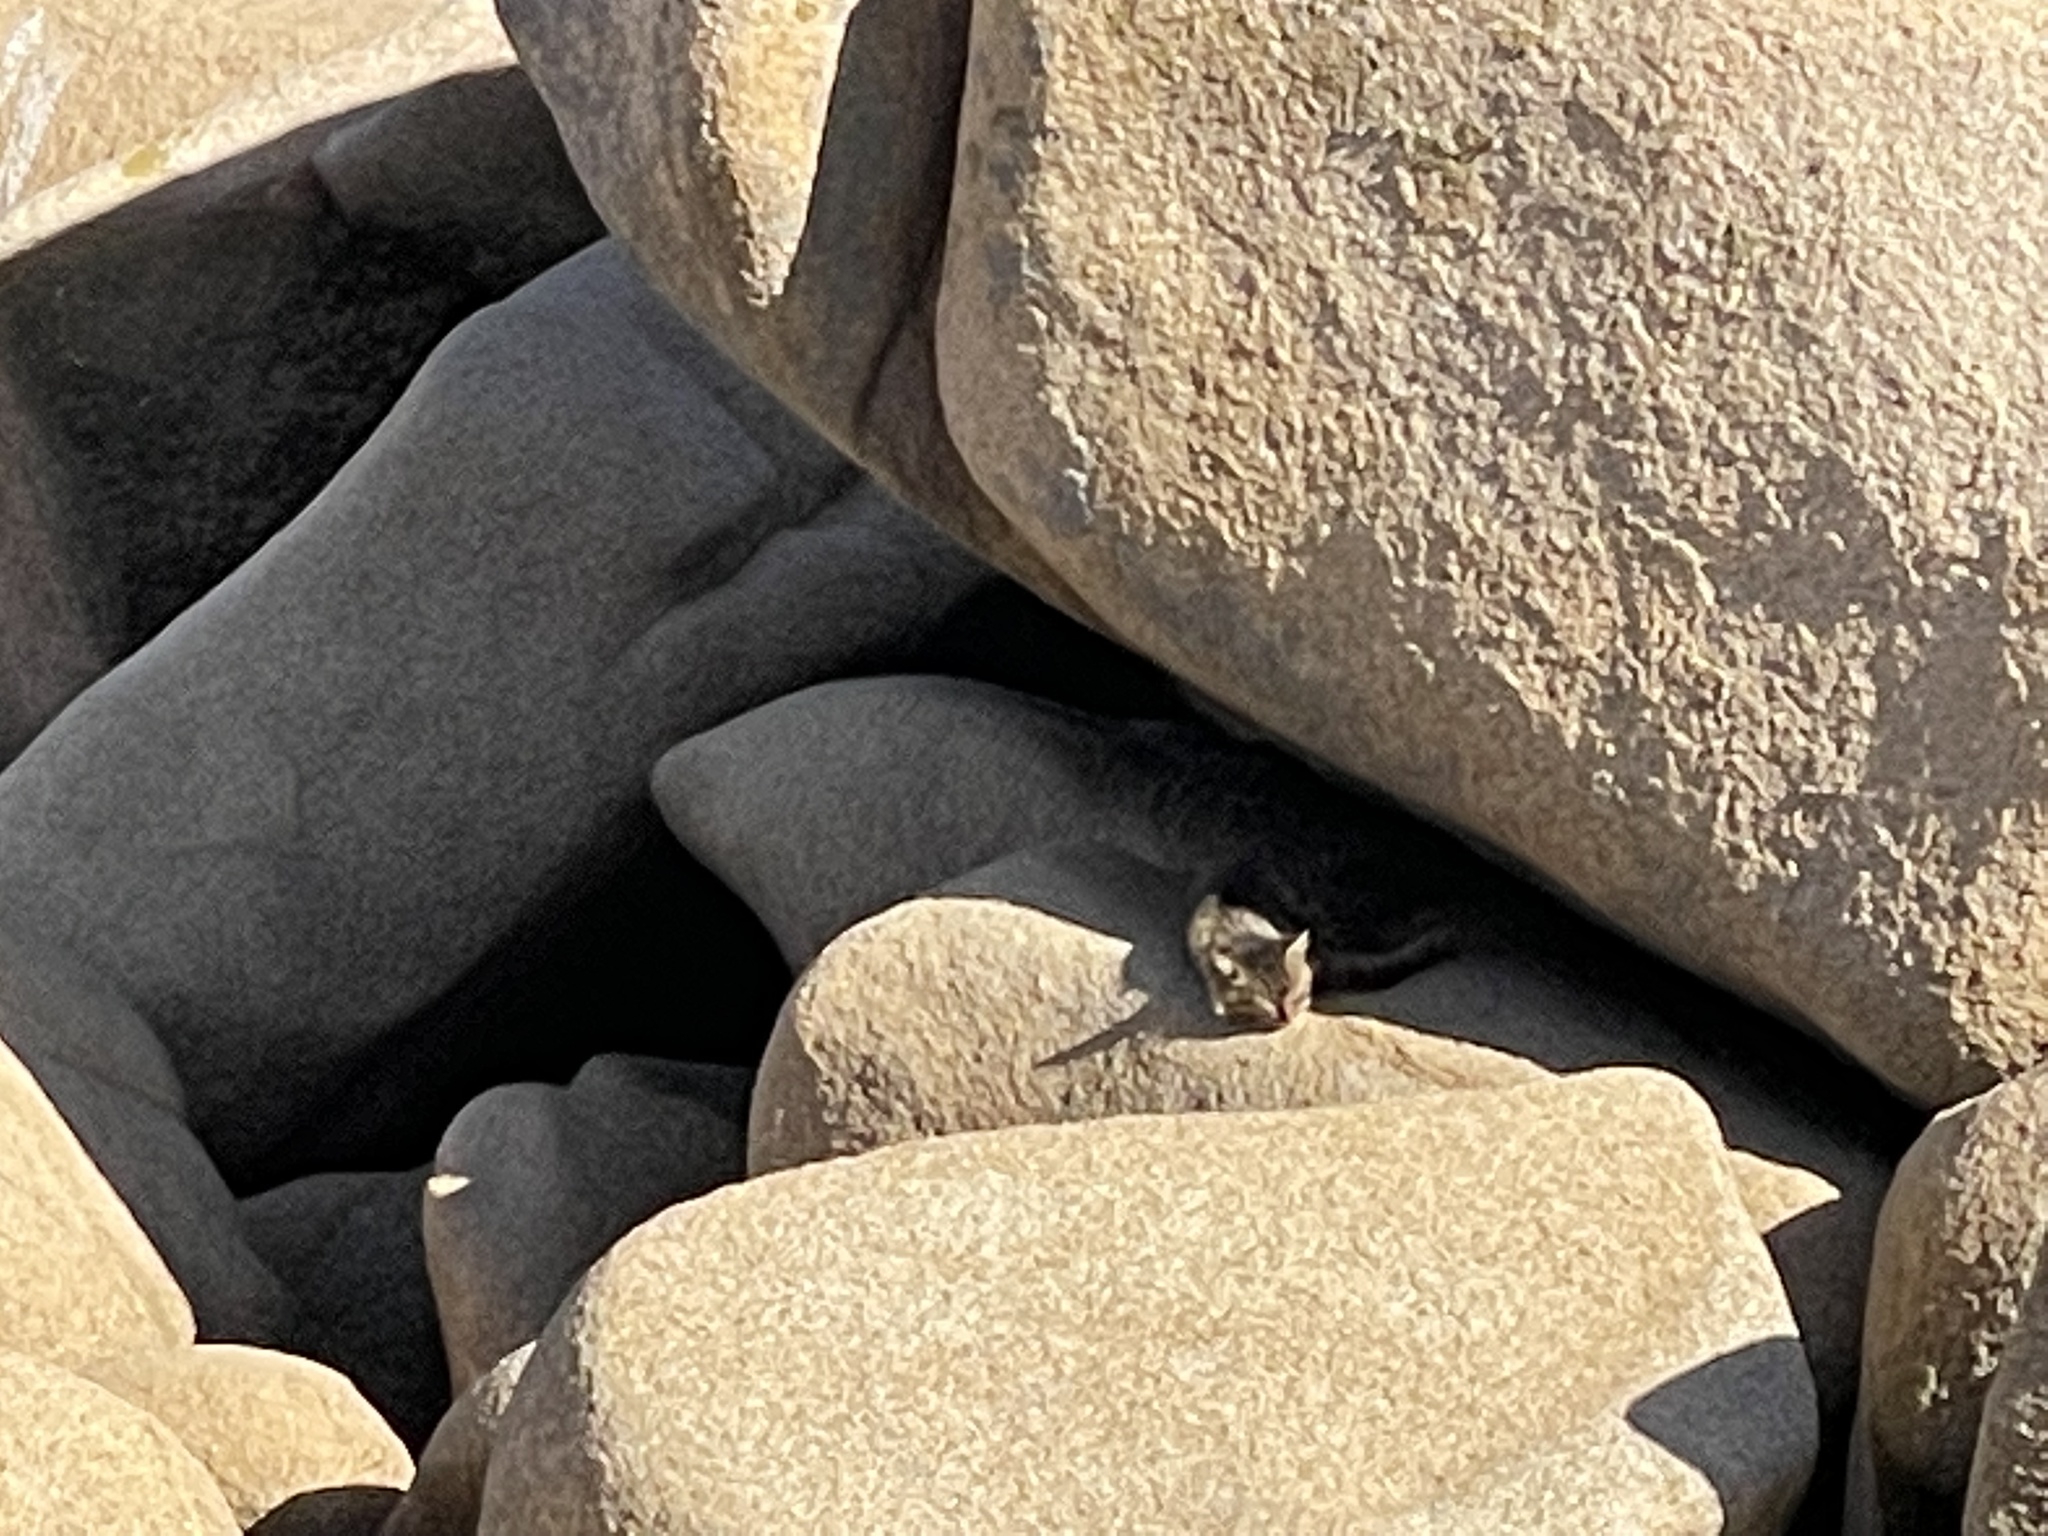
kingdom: Animalia
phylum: Chordata
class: Mammalia
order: Carnivora
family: Felidae
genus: Felis
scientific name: Felis catus
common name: Domestic cat
